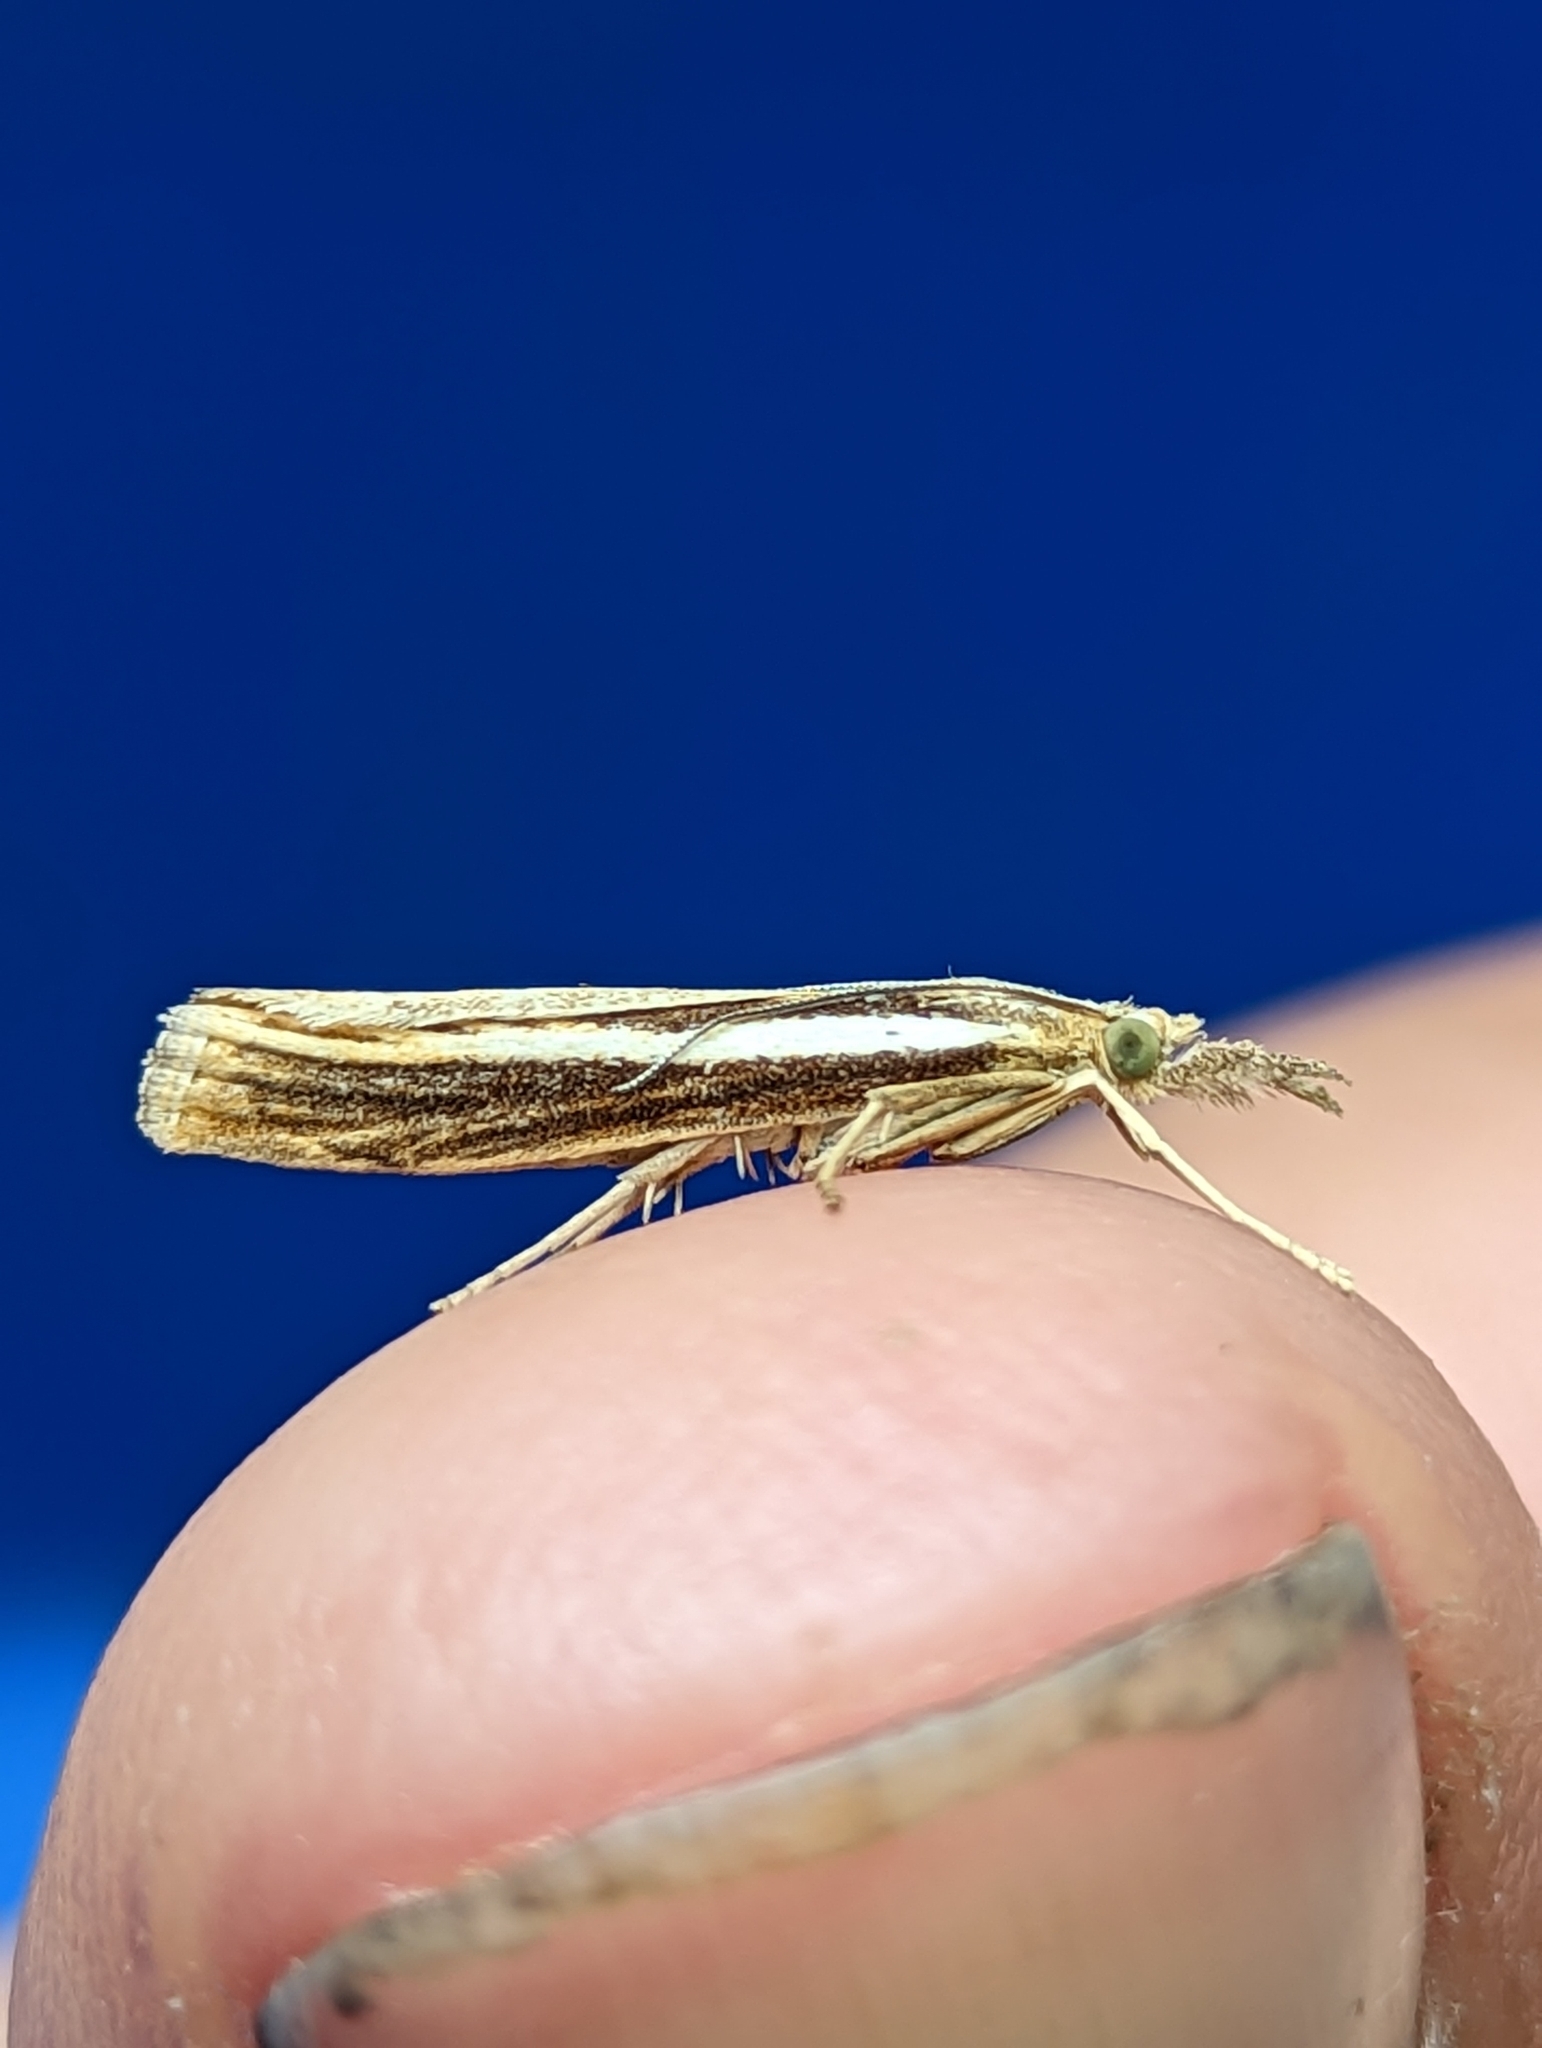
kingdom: Animalia
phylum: Arthropoda
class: Insecta
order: Lepidoptera
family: Crambidae
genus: Agriphila
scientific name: Agriphila tristellus
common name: Common grass-veneer
